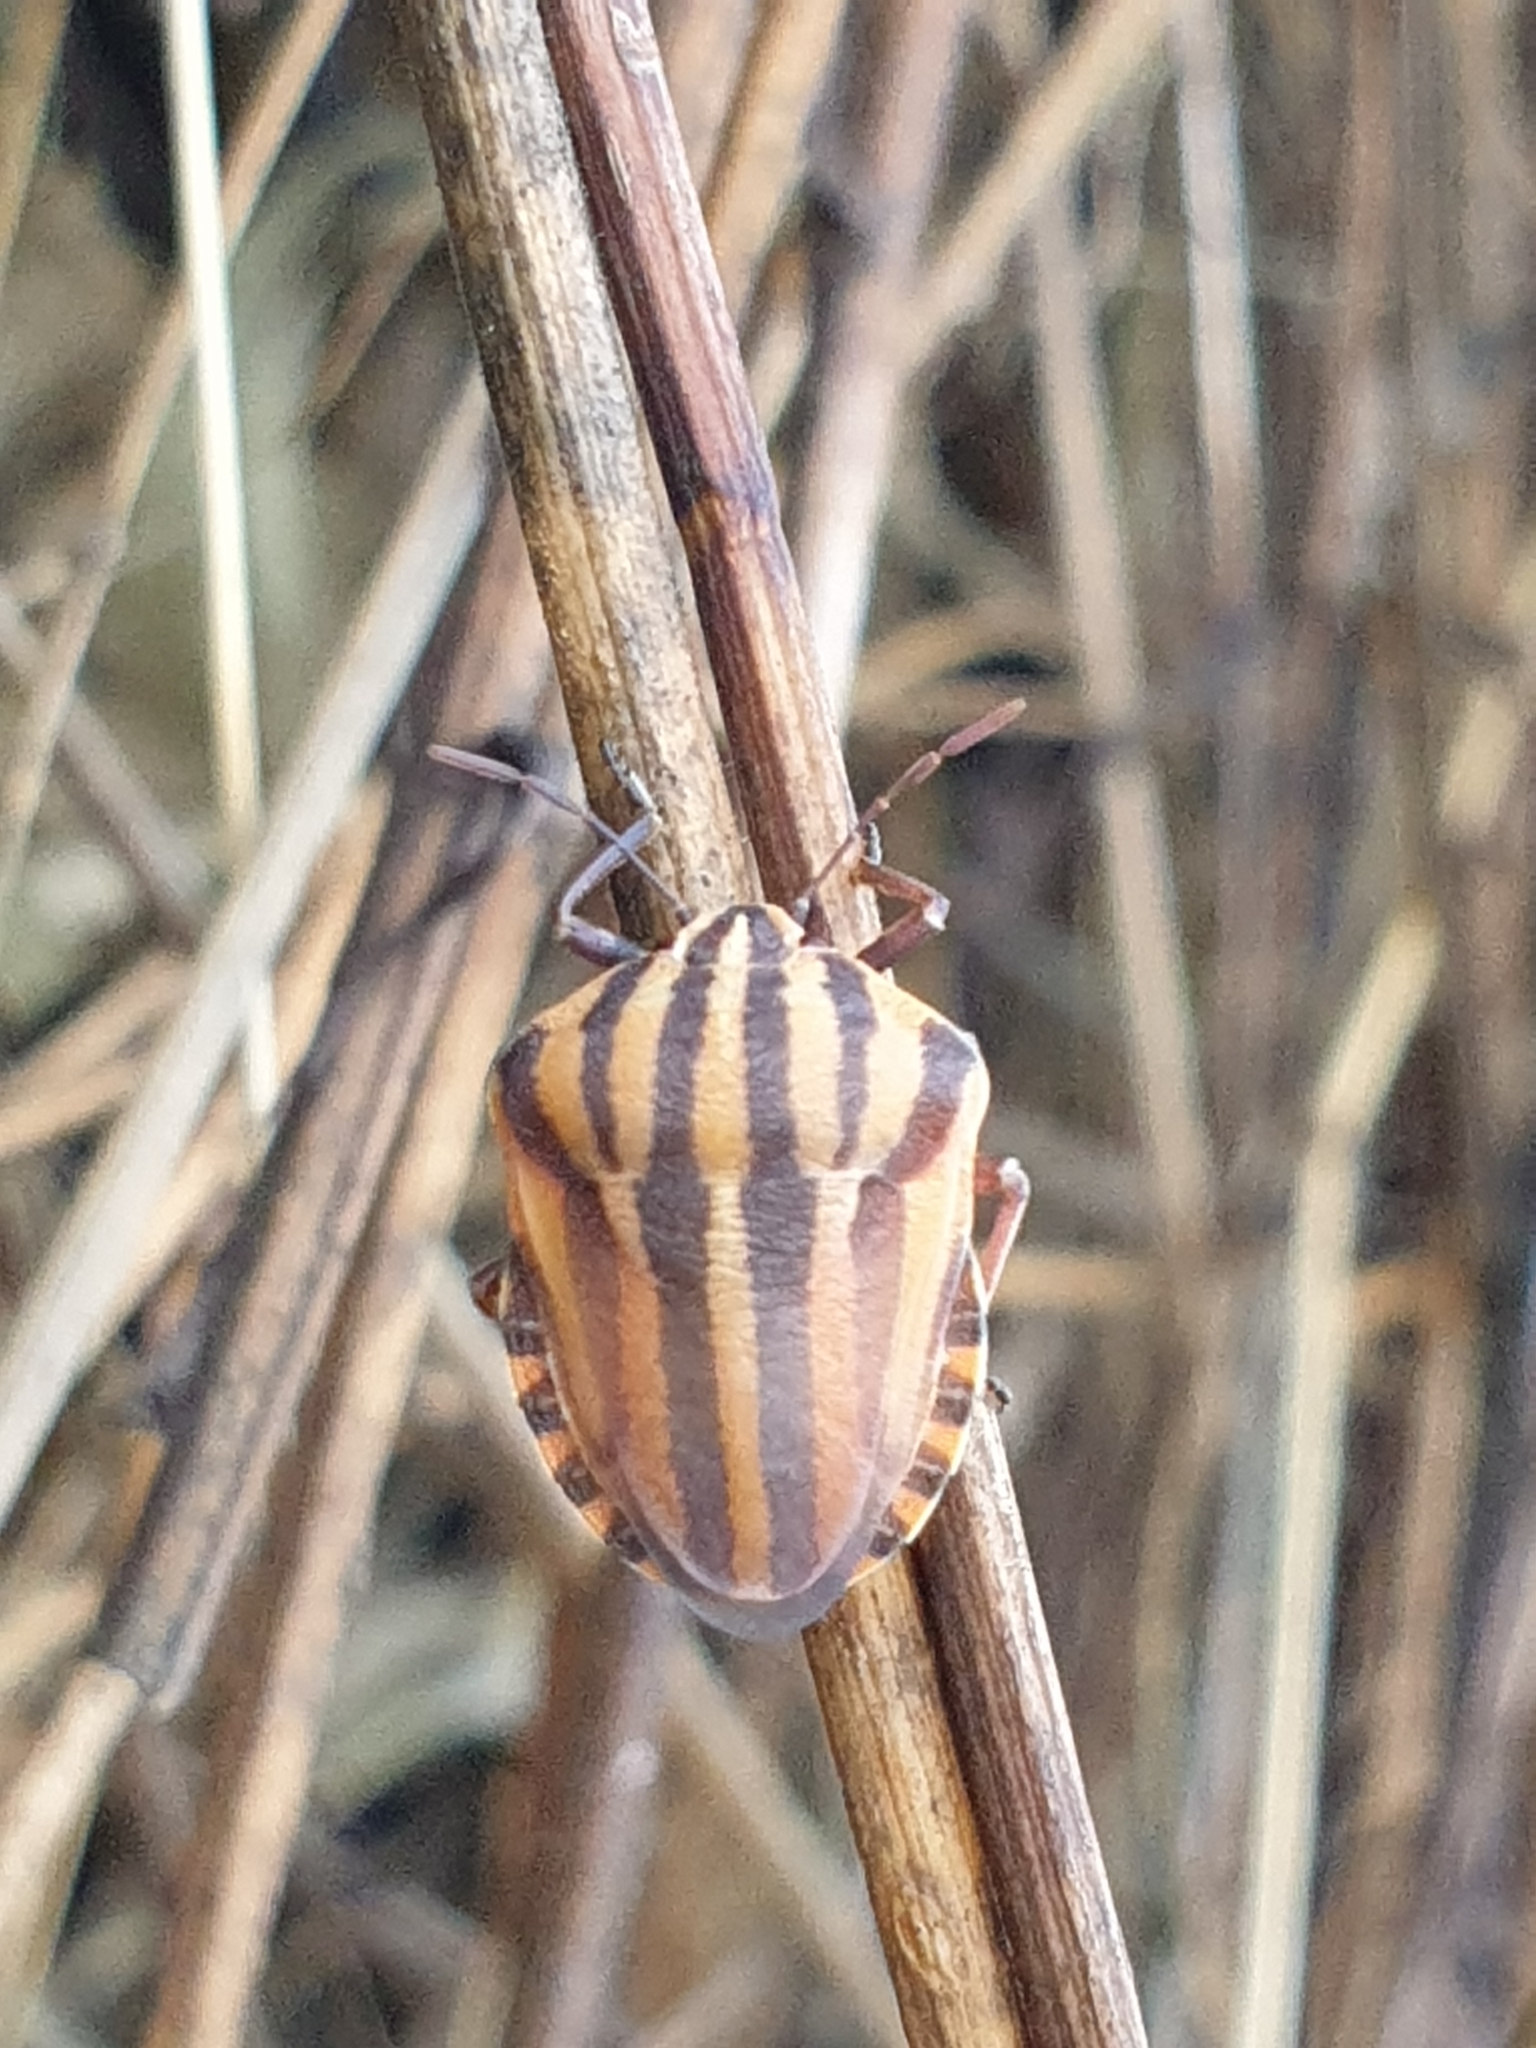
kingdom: Animalia
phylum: Arthropoda
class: Insecta
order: Hemiptera
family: Pentatomidae
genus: Graphosoma
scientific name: Graphosoma italicum
